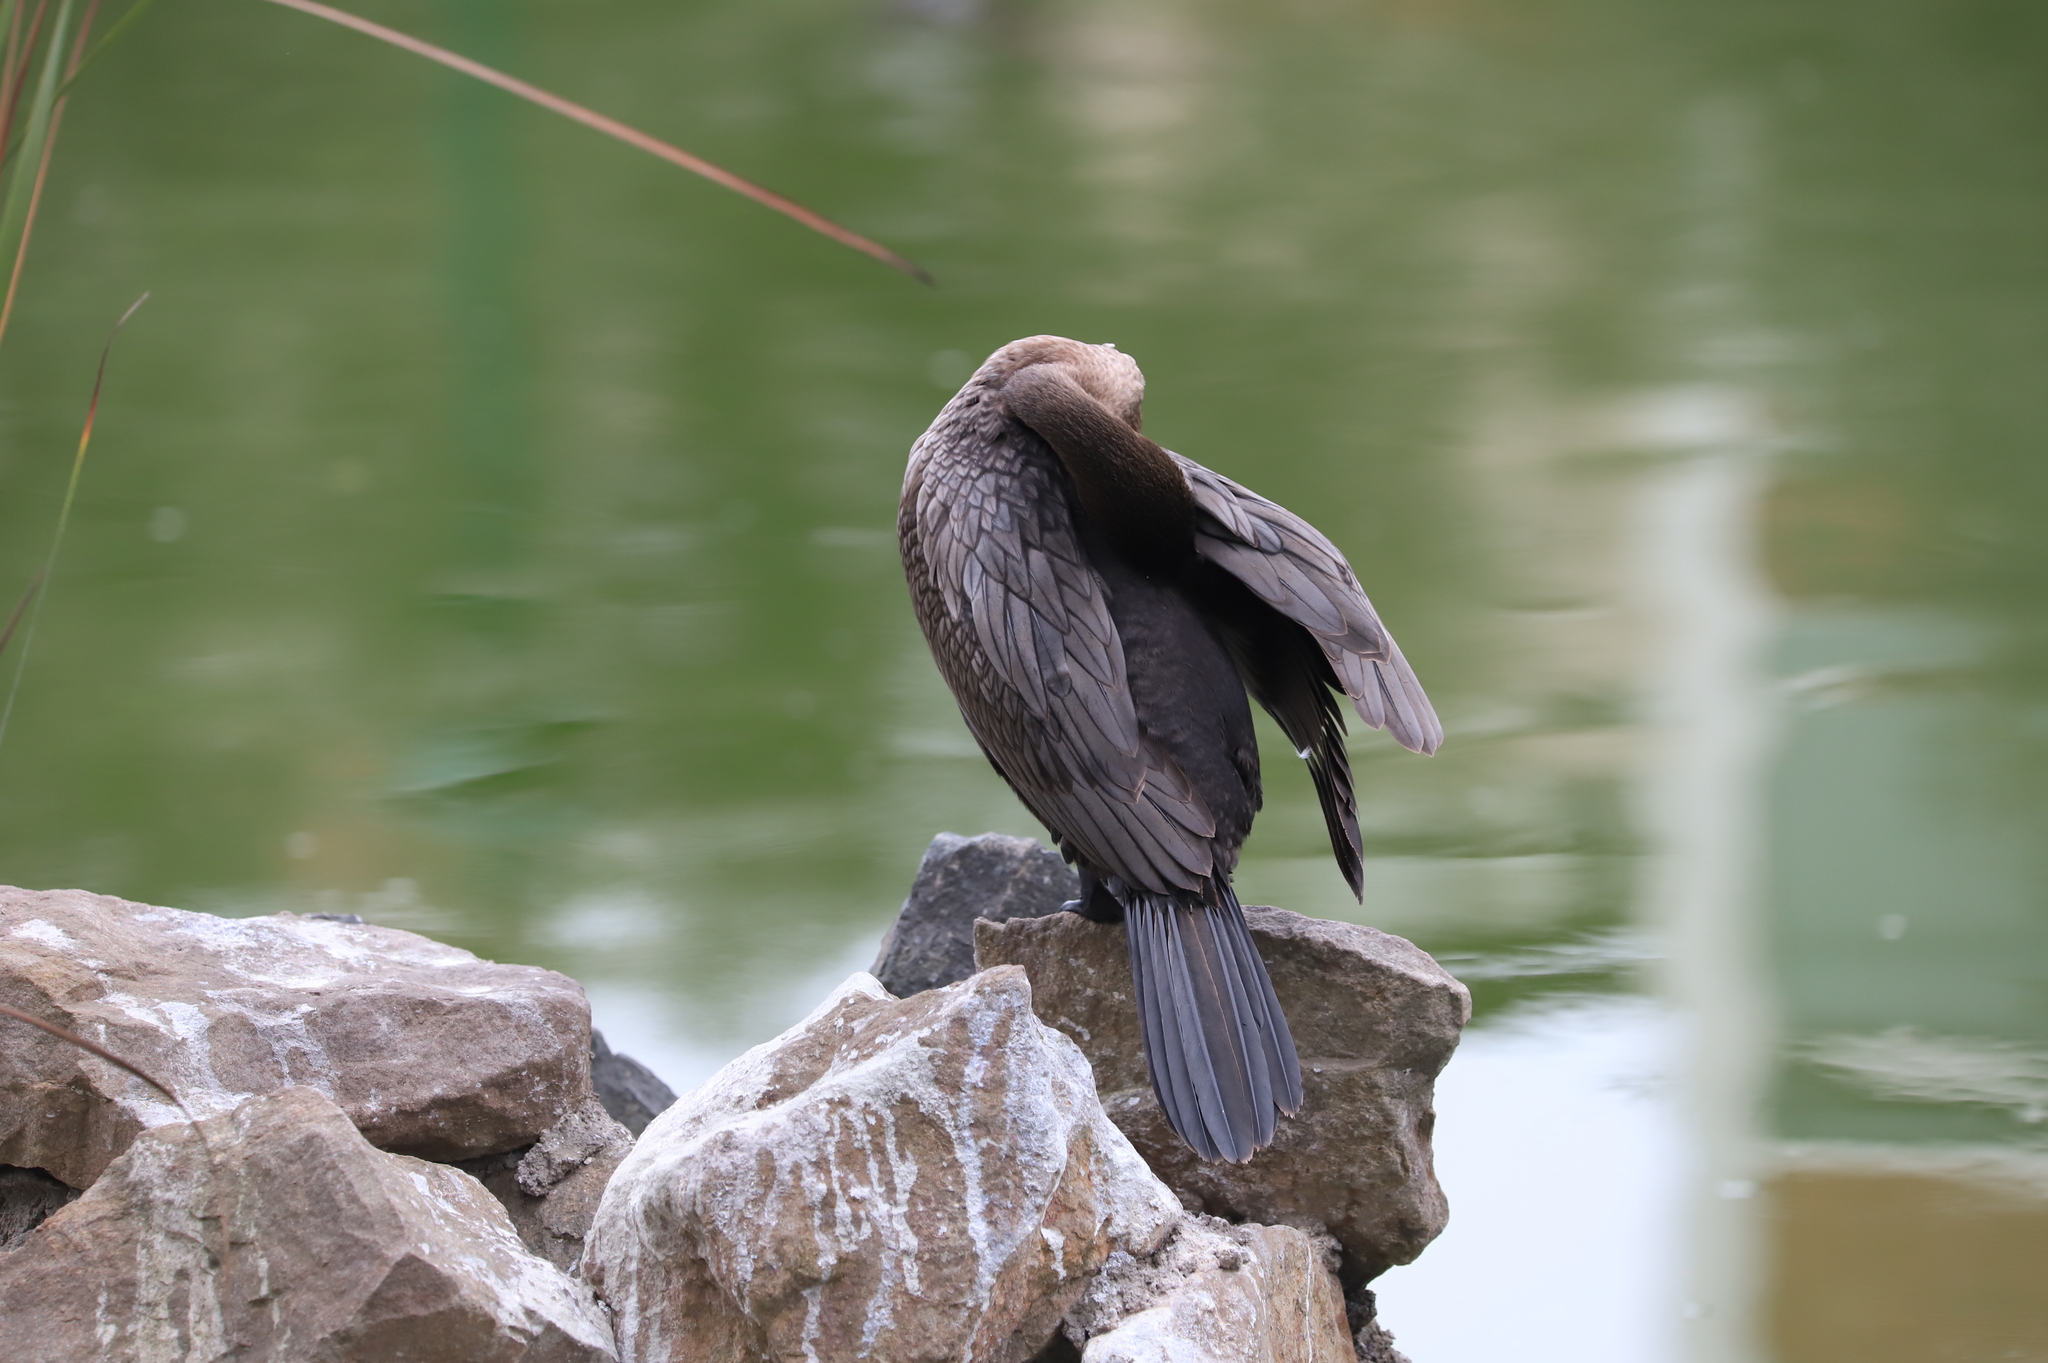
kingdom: Animalia
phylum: Chordata
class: Aves
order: Suliformes
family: Phalacrocoracidae
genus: Phalacrocorax
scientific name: Phalacrocorax brasilianus
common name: Neotropic cormorant
